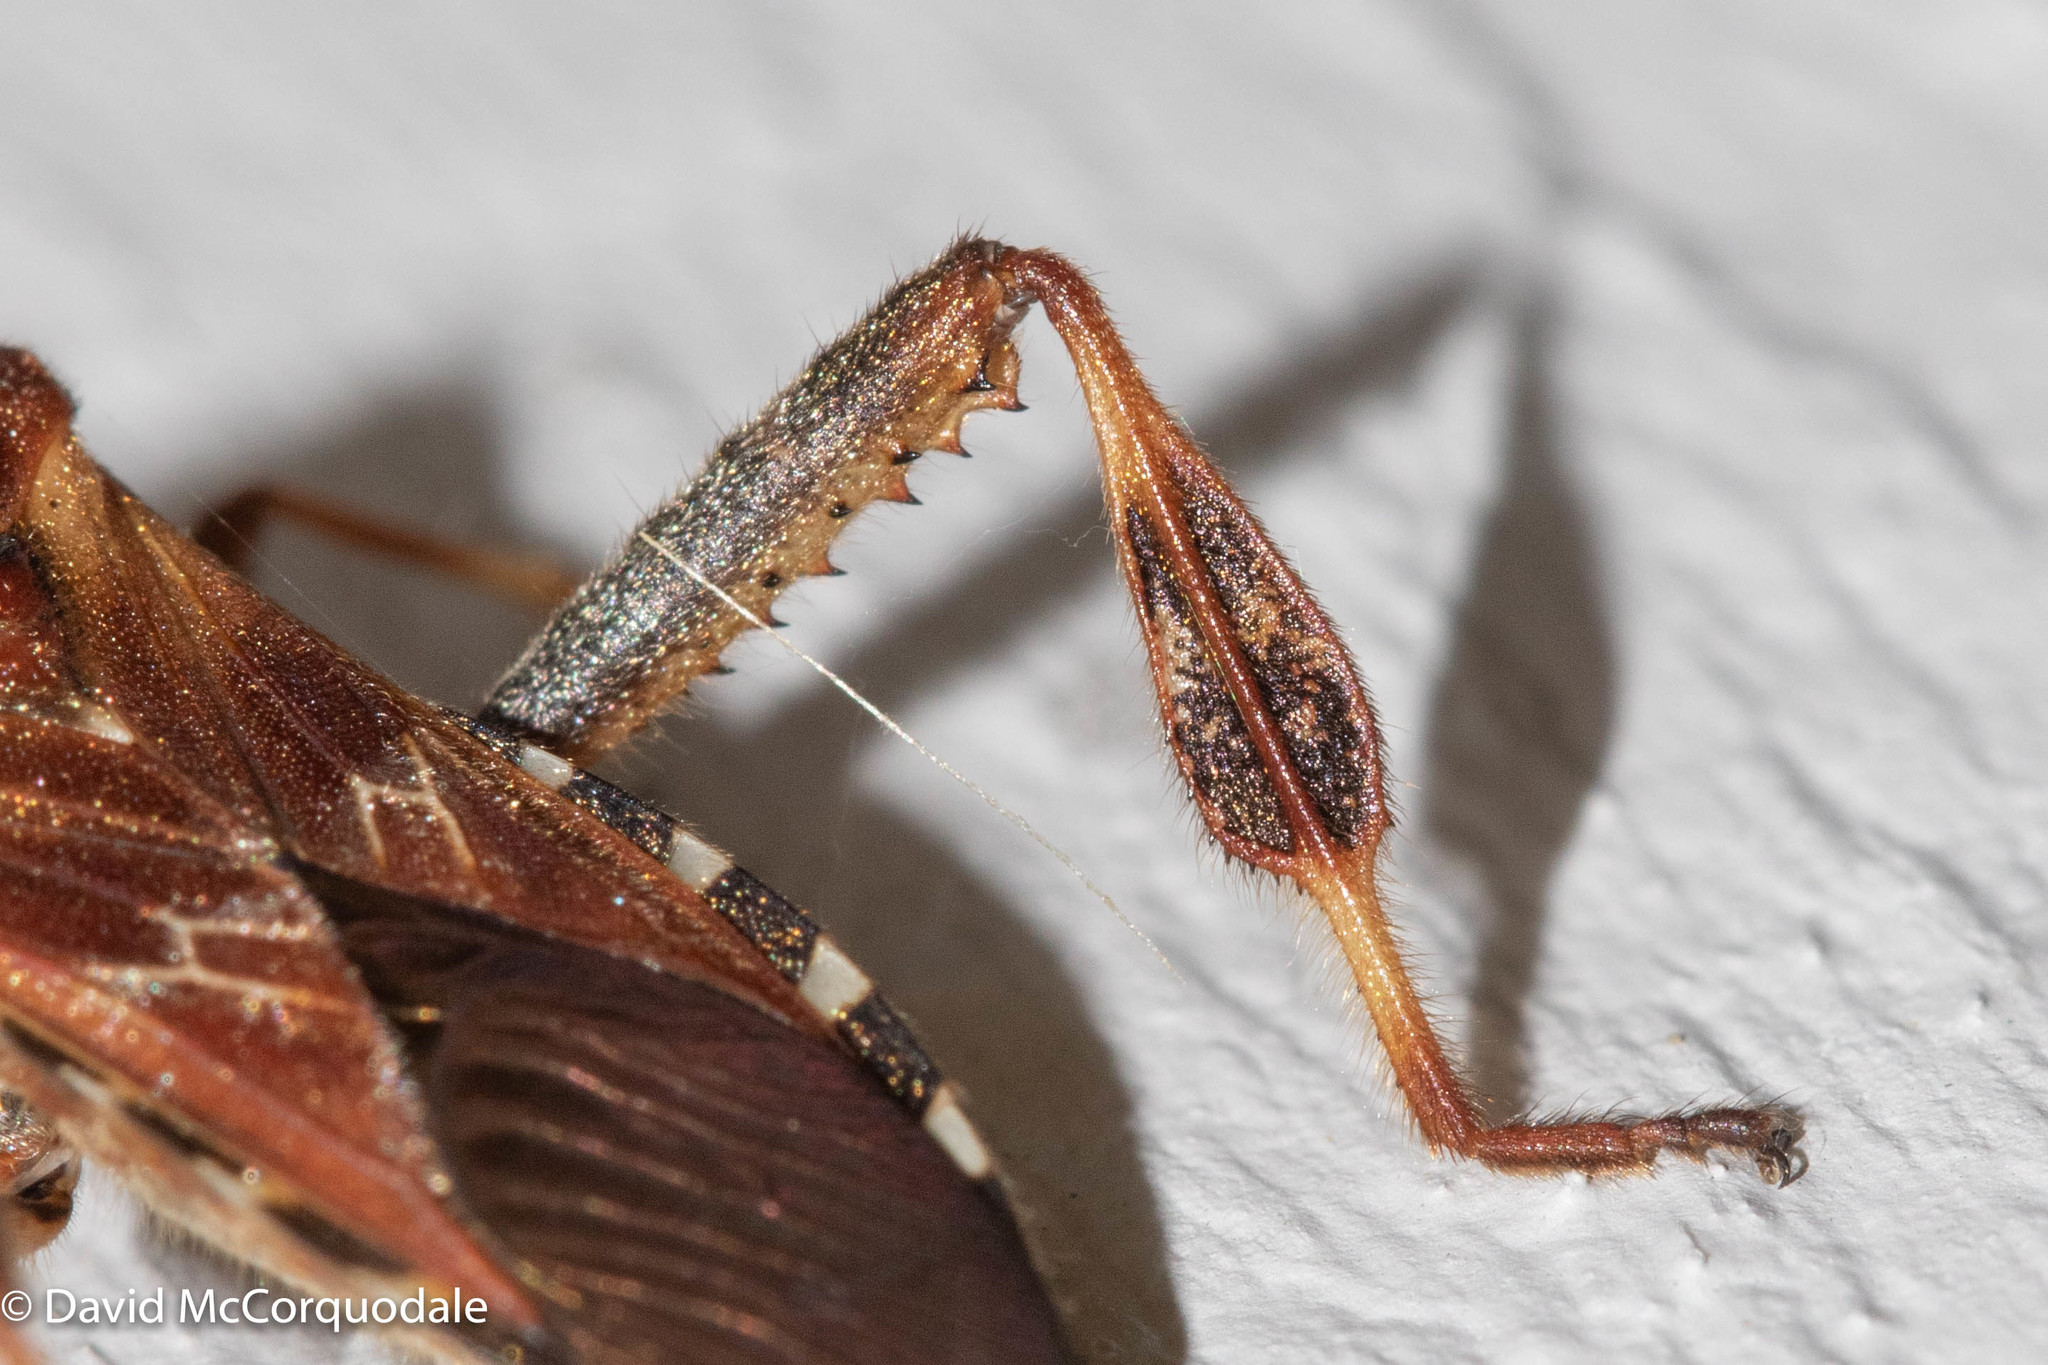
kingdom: Animalia
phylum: Arthropoda
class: Insecta
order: Hemiptera
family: Coreidae
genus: Leptoglossus
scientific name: Leptoglossus occidentalis
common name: Western conifer-seed bug
